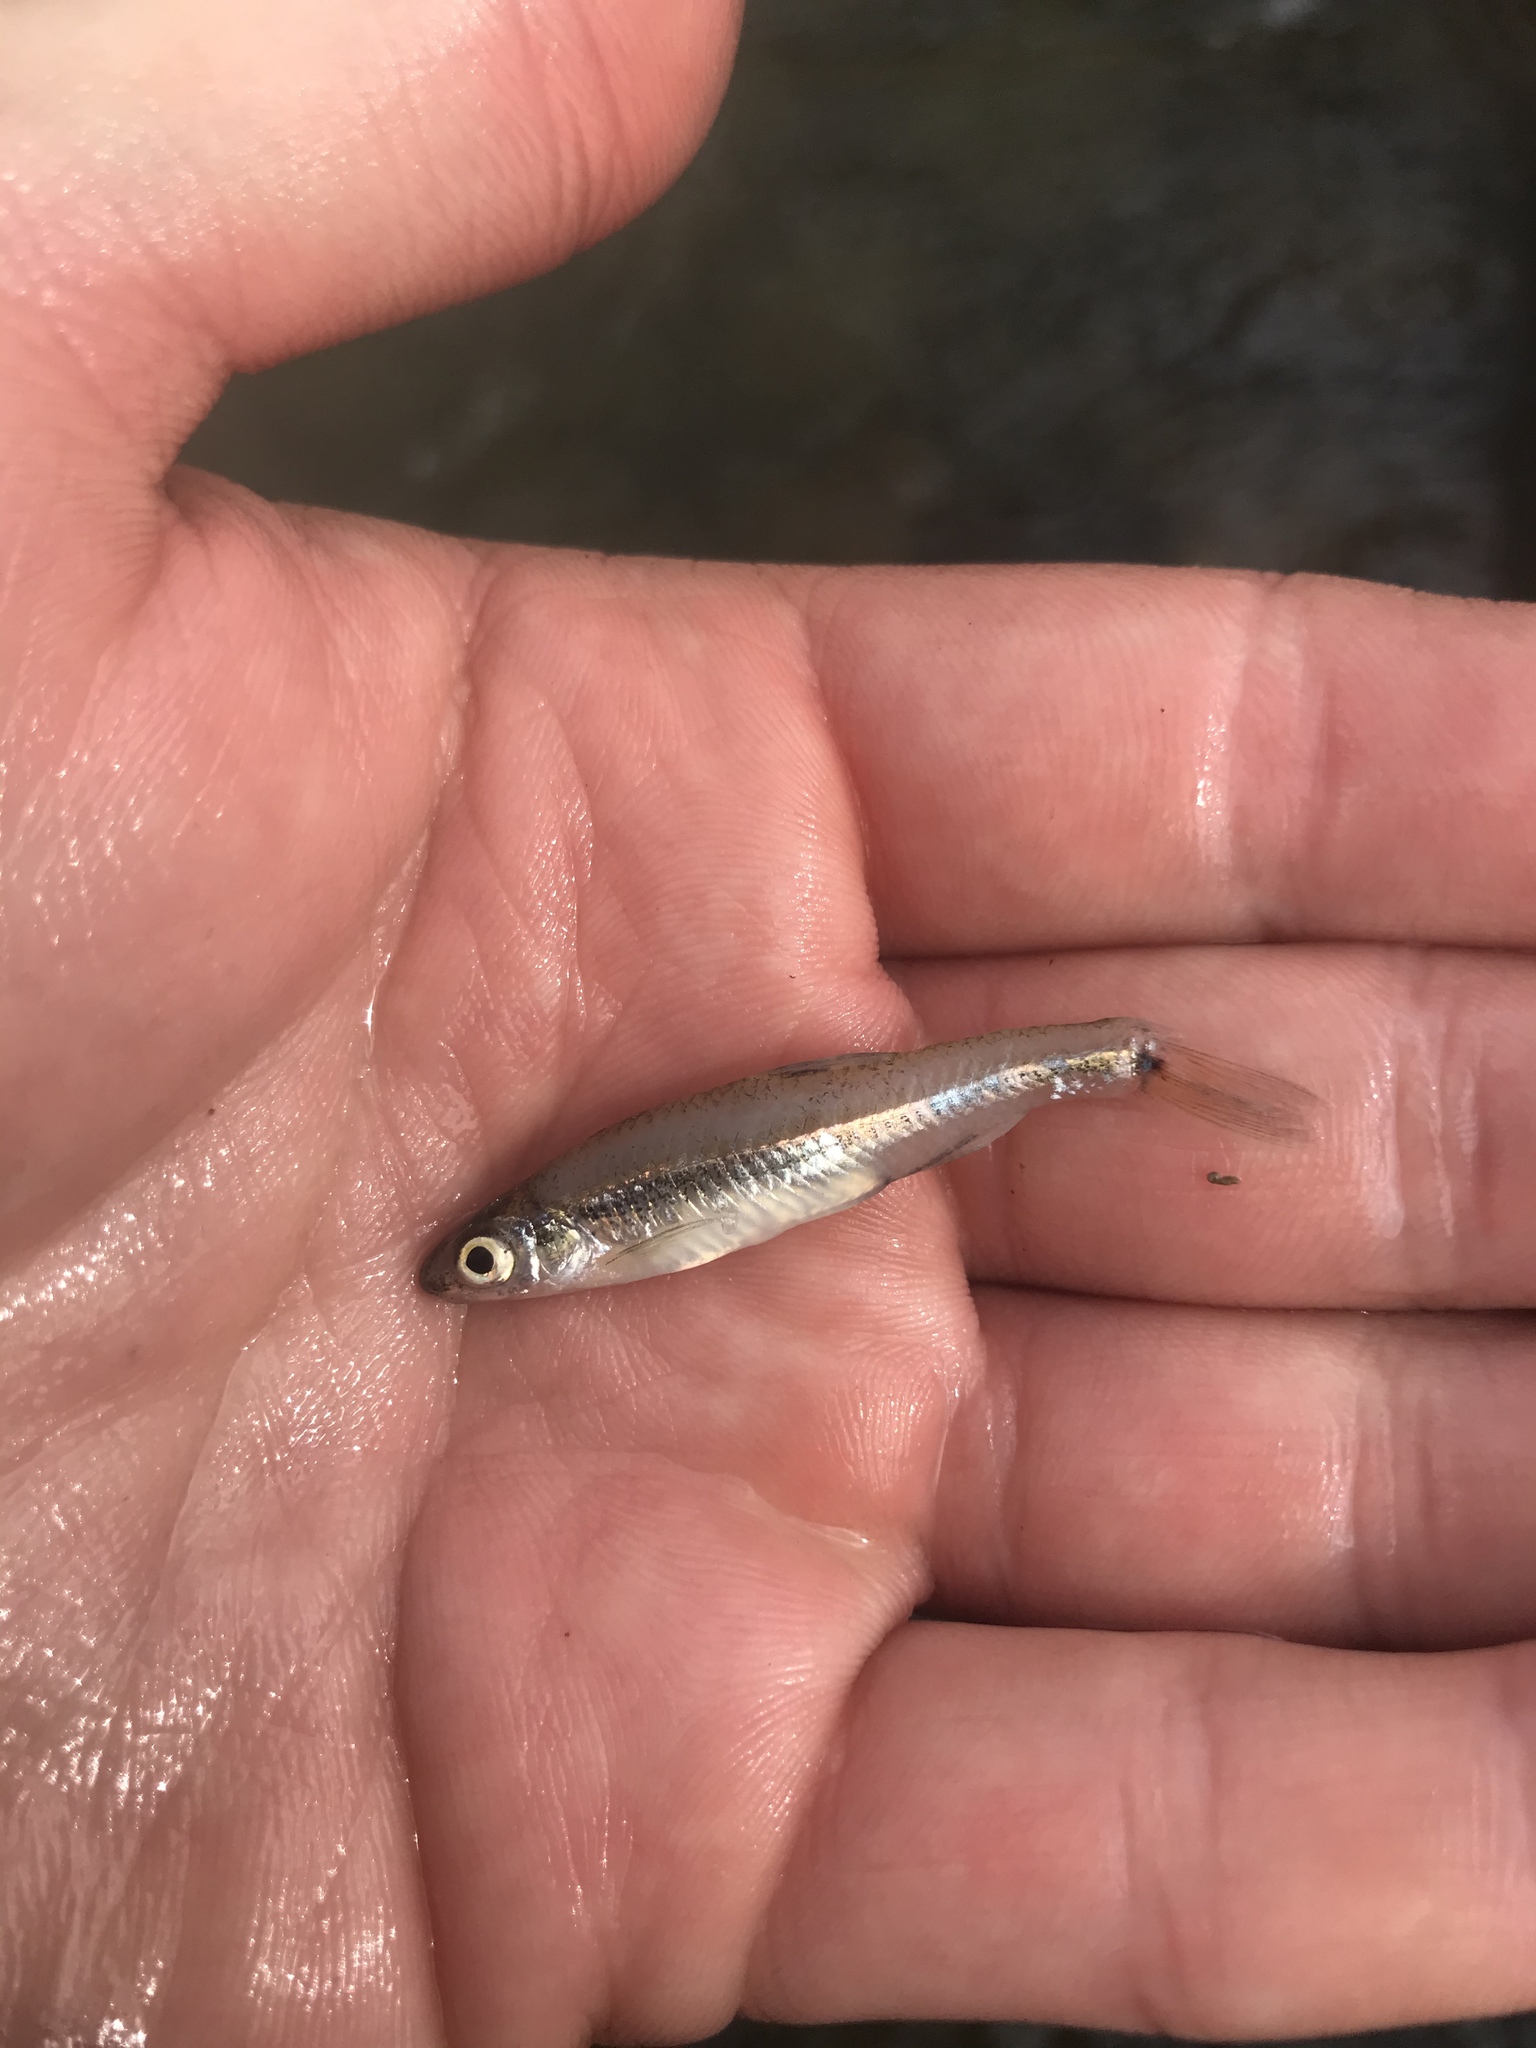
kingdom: Animalia
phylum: Chordata
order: Cypriniformes
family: Cyprinidae
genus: Notropis
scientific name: Notropis
